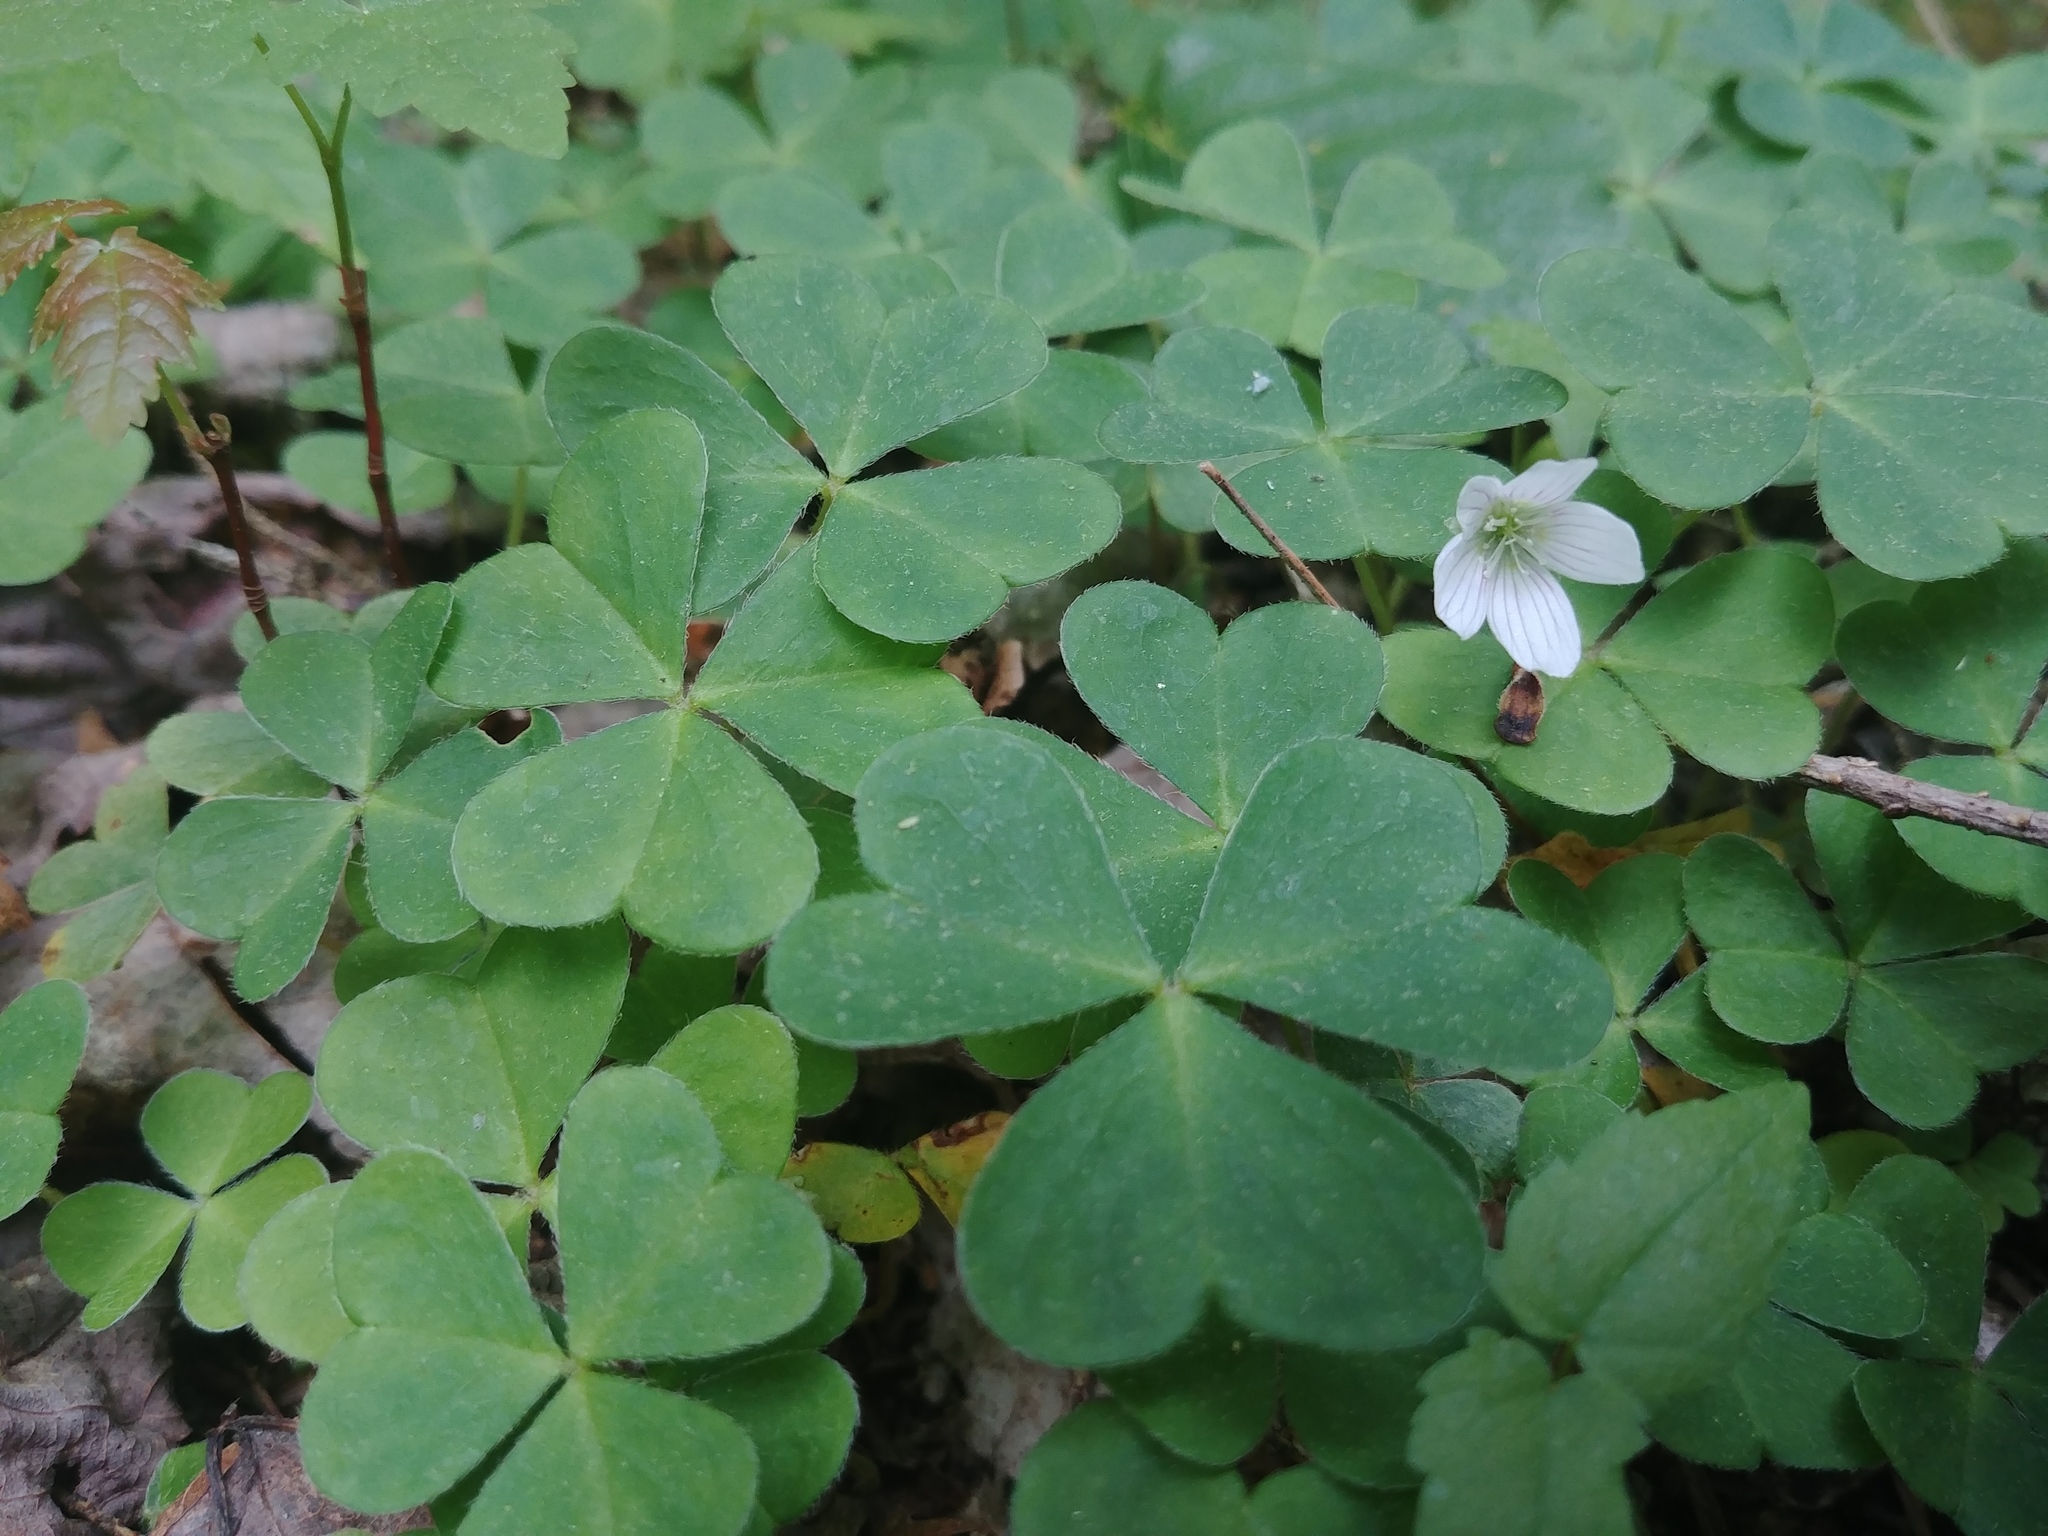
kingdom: Plantae
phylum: Tracheophyta
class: Magnoliopsida
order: Oxalidales
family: Oxalidaceae
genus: Oxalis
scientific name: Oxalis montana
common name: American wood-sorrel
